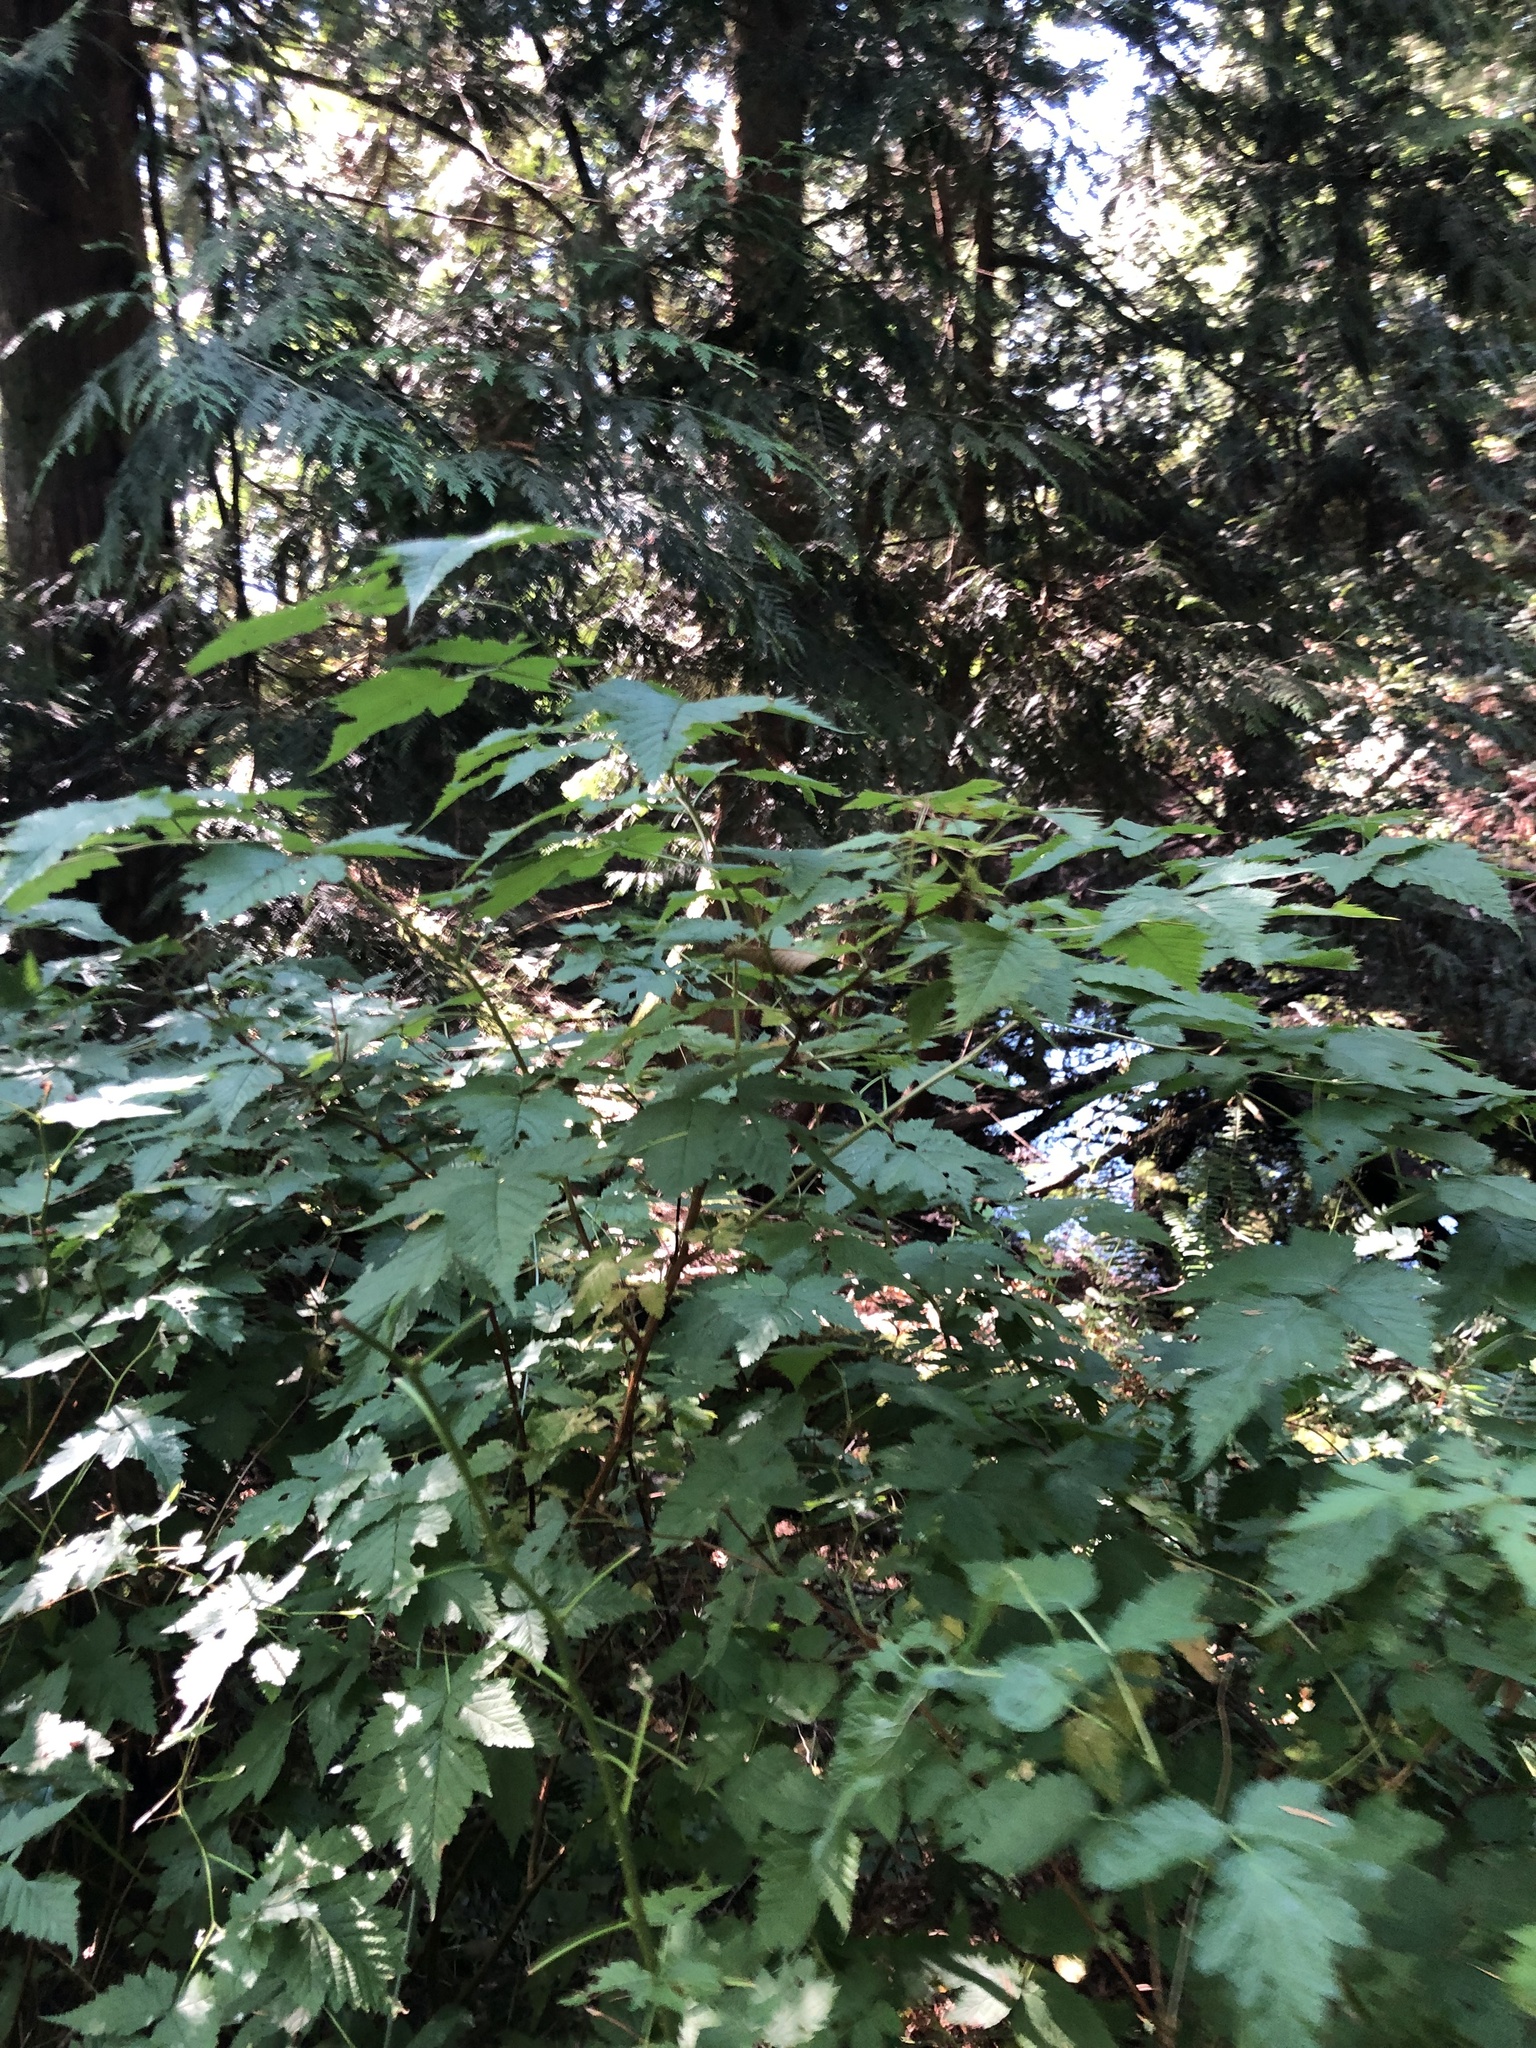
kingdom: Plantae
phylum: Tracheophyta
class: Magnoliopsida
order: Rosales
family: Rosaceae
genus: Rubus
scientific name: Rubus spectabilis
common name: Salmonberry
